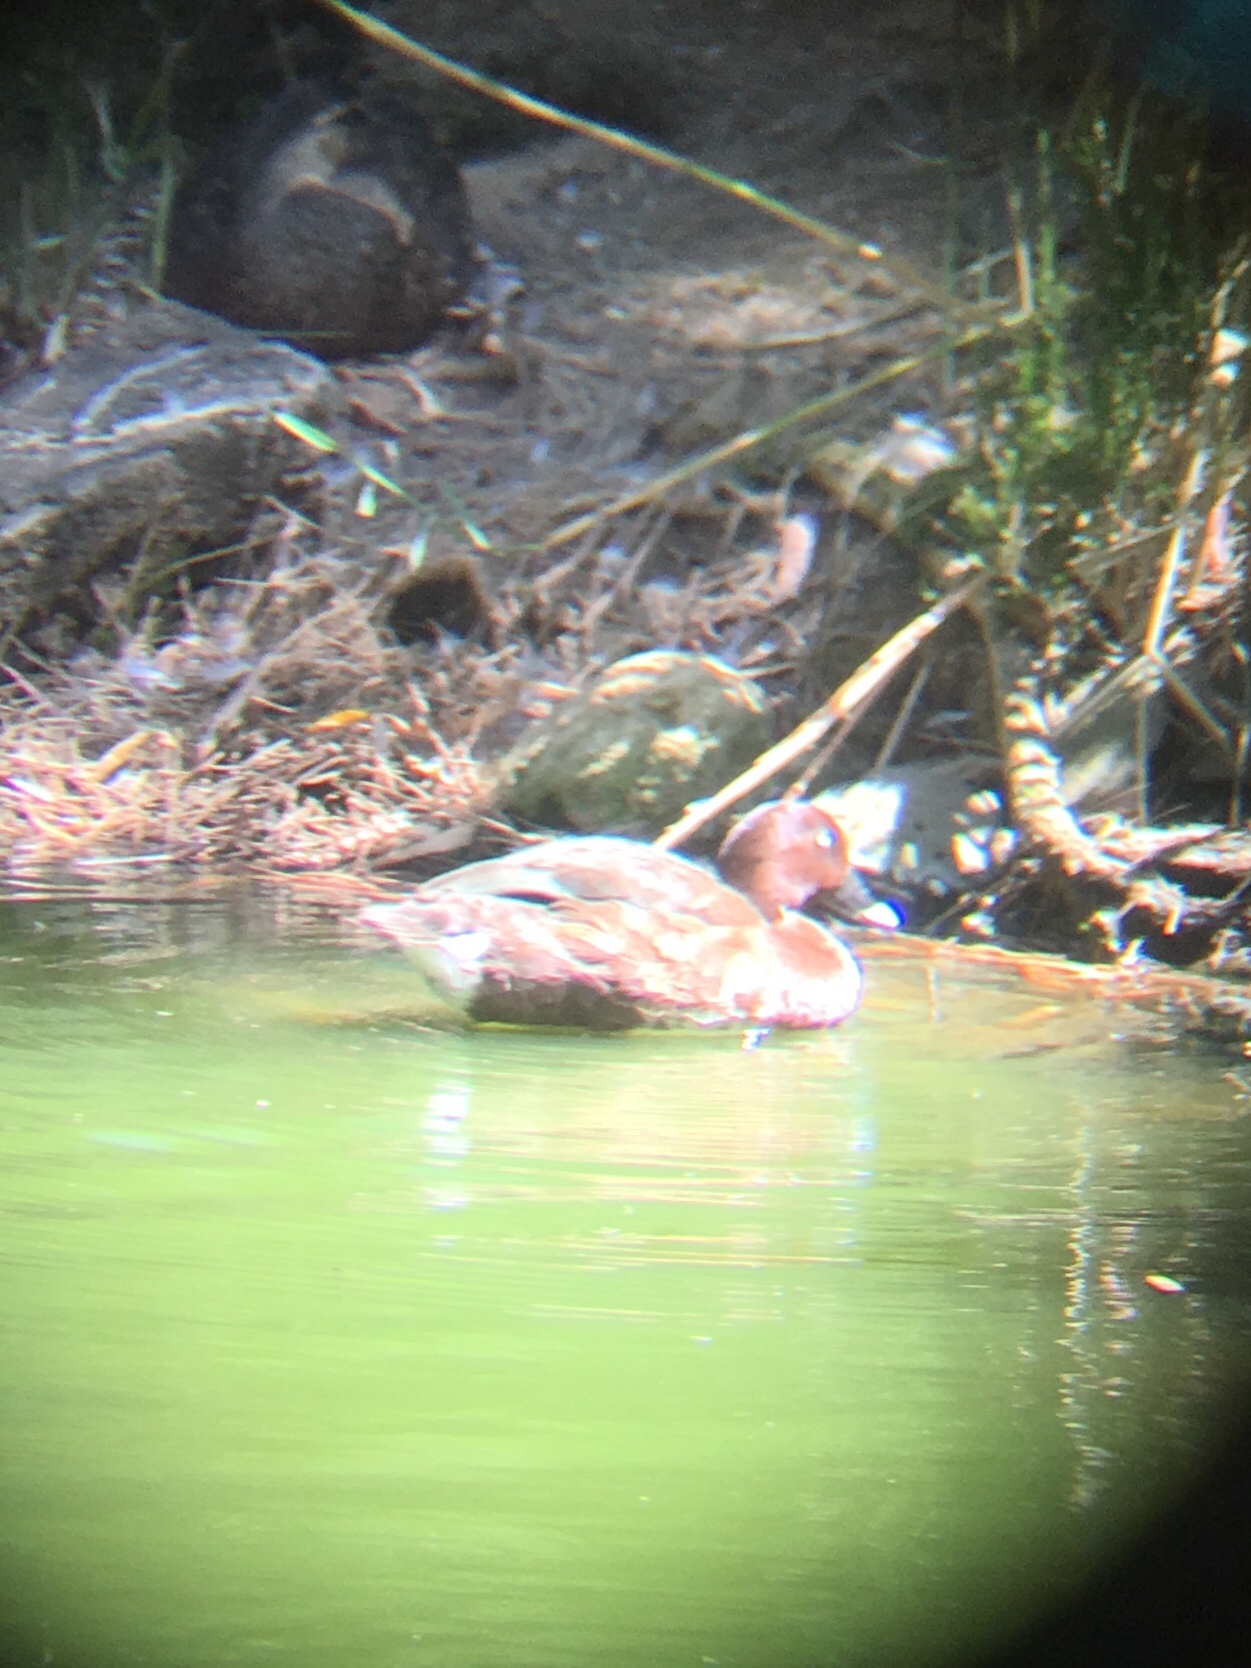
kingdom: Animalia
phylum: Chordata
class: Aves
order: Anseriformes
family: Anatidae
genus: Aythya
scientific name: Aythya australis
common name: Hardhead
